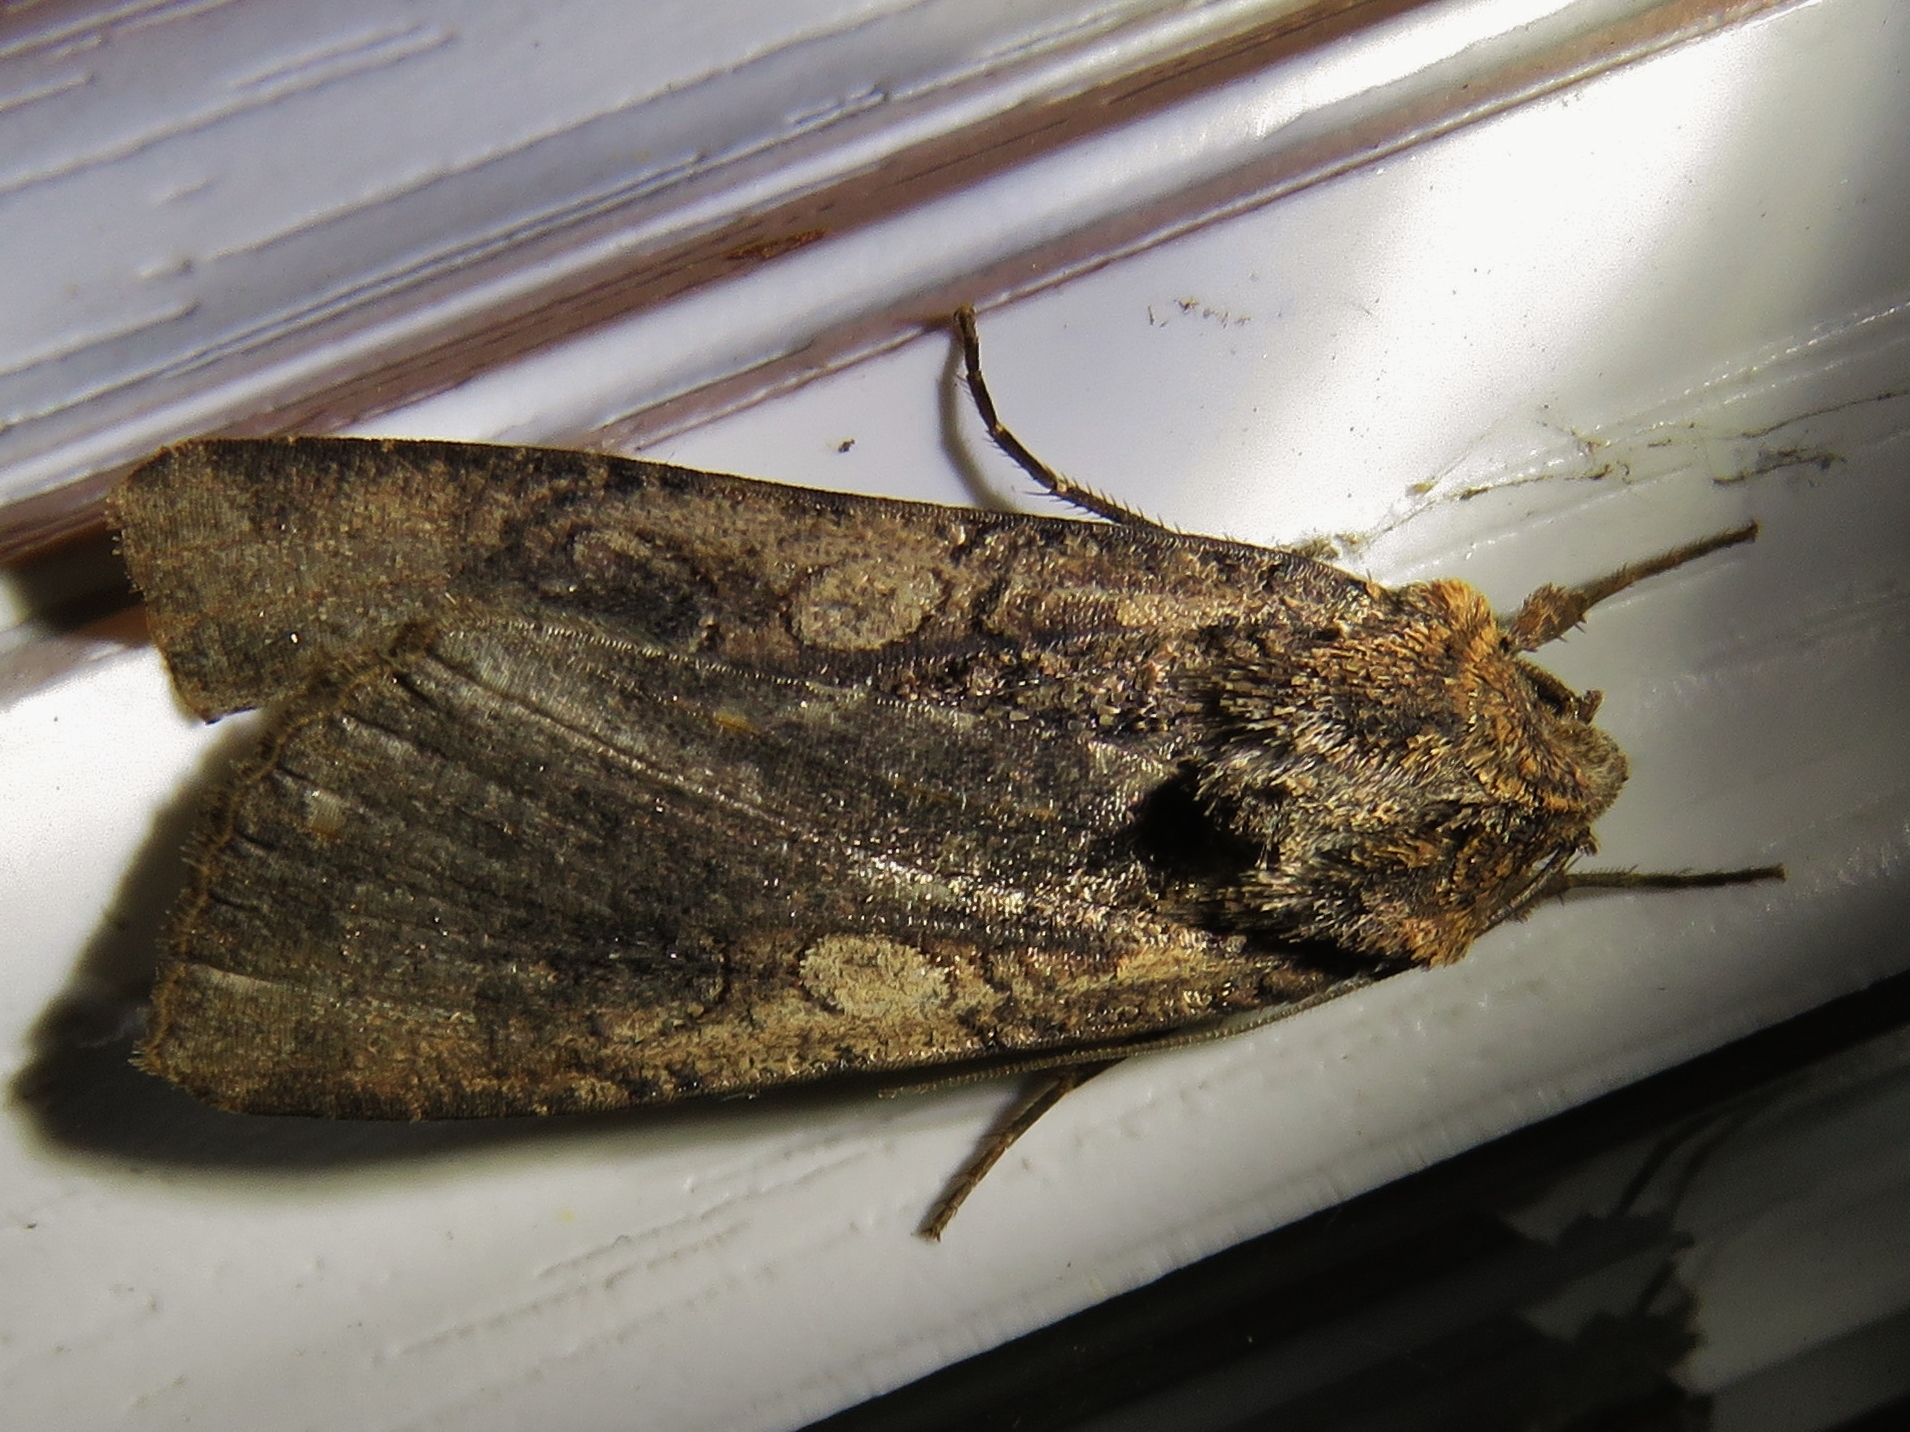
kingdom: Animalia
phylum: Arthropoda
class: Insecta
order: Lepidoptera
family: Noctuidae
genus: Peridroma
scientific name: Peridroma saucia
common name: Pearly underwing
